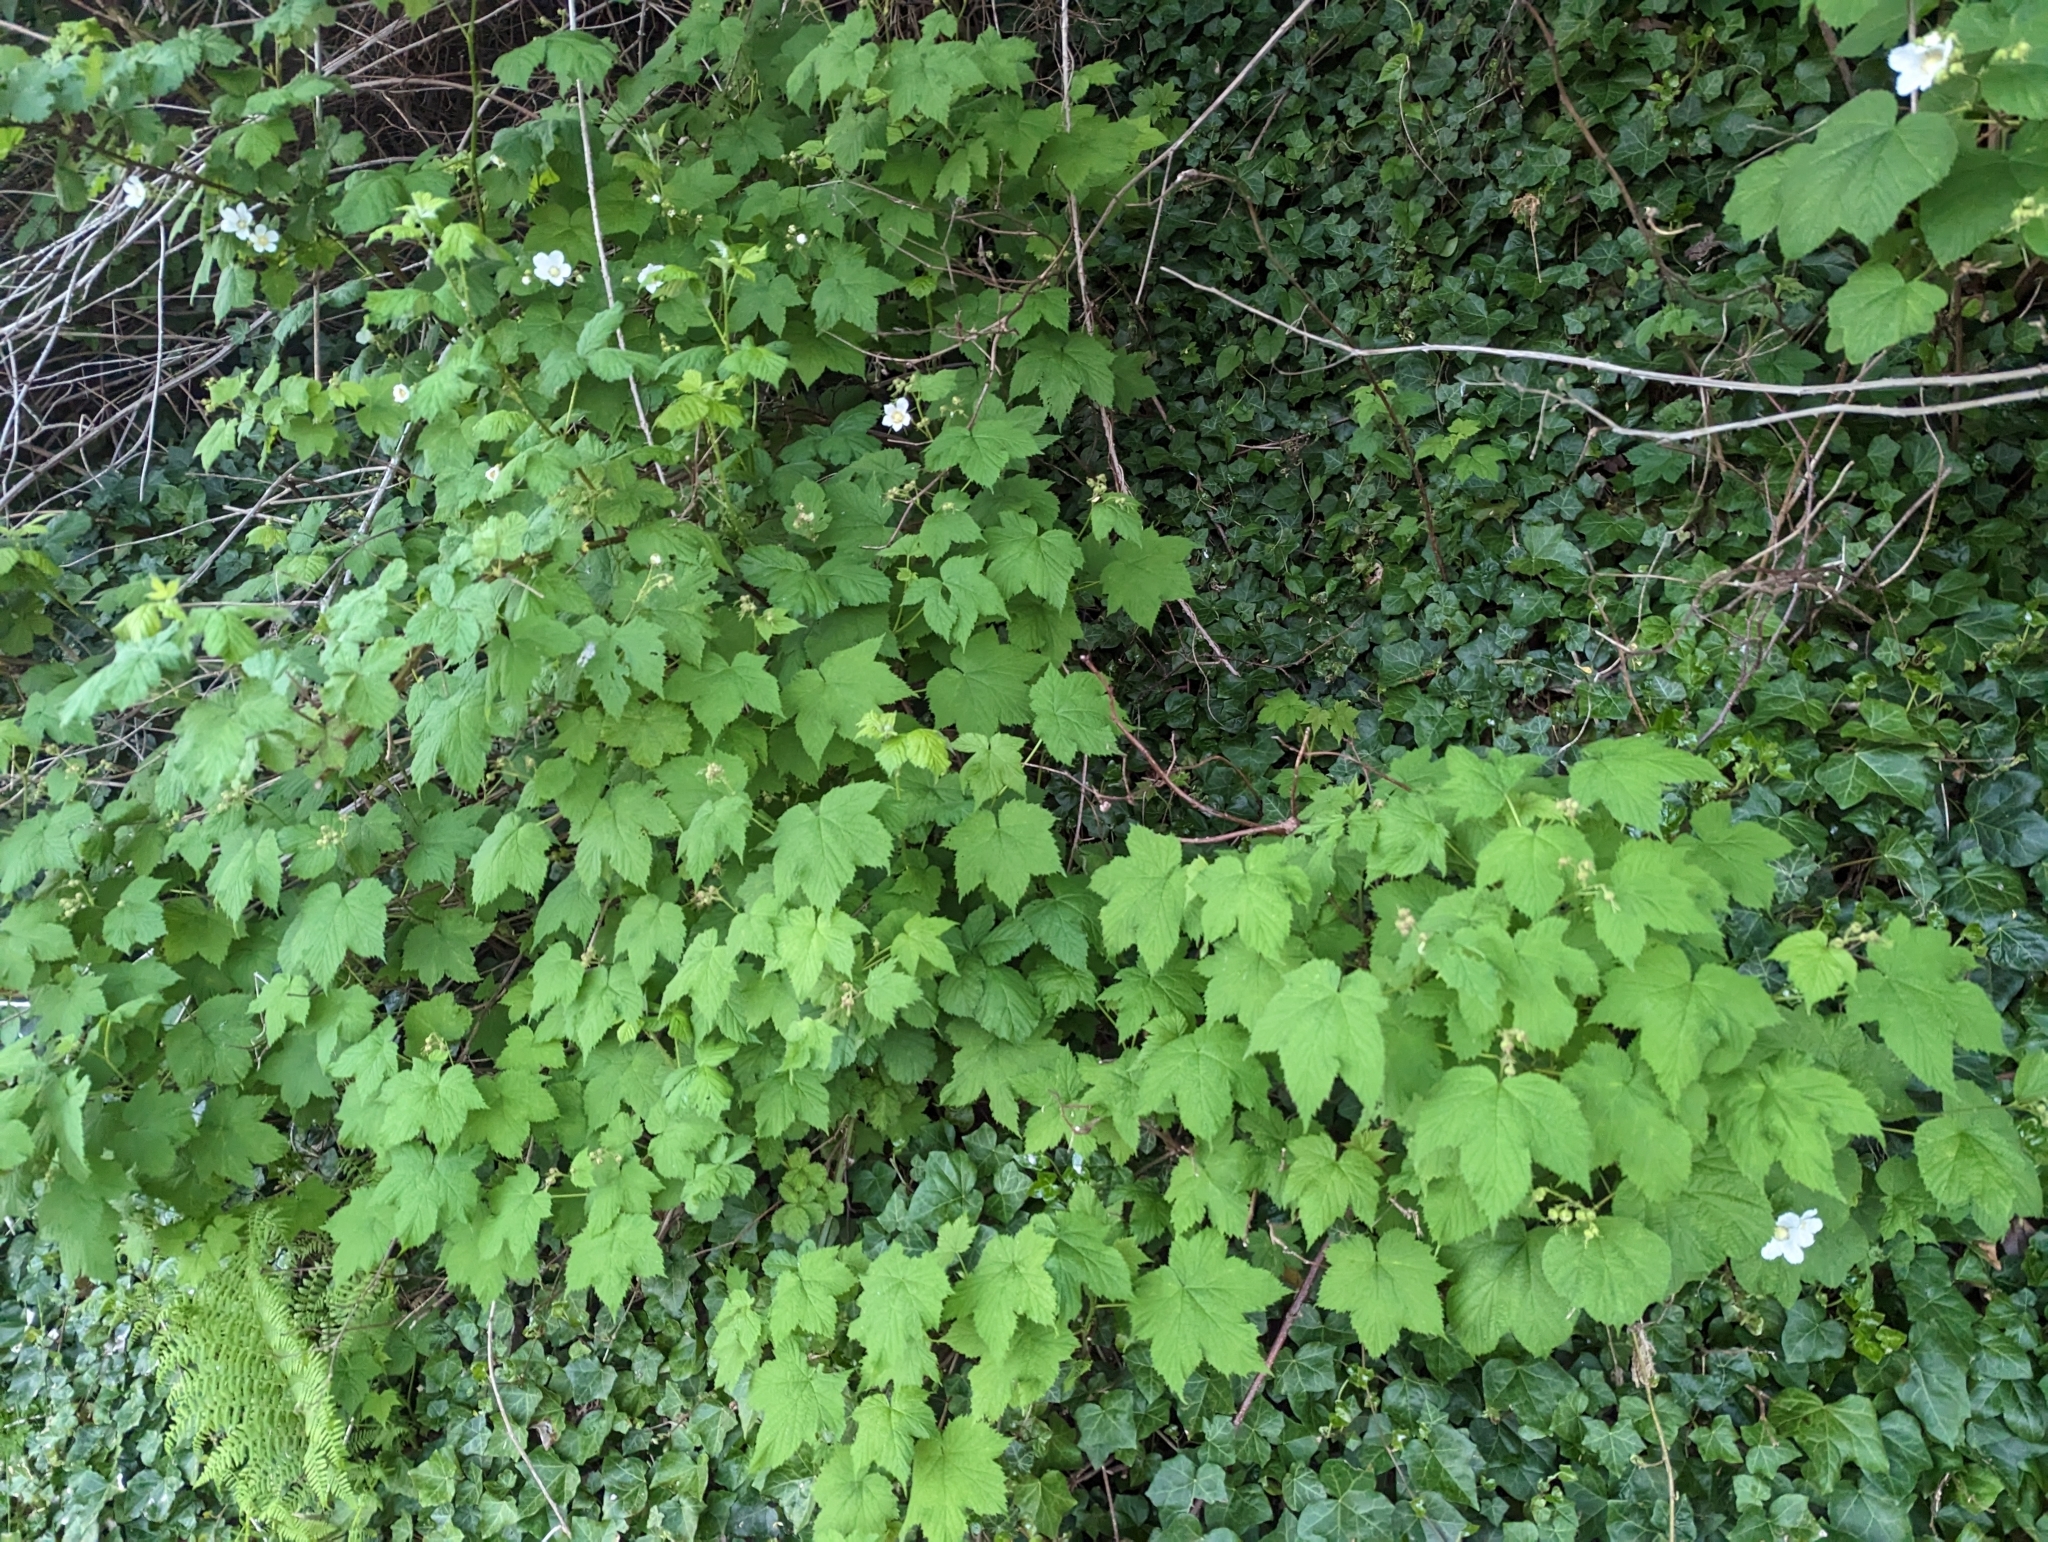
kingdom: Plantae
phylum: Tracheophyta
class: Magnoliopsida
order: Rosales
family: Rosaceae
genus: Rubus
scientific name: Rubus parviflorus
